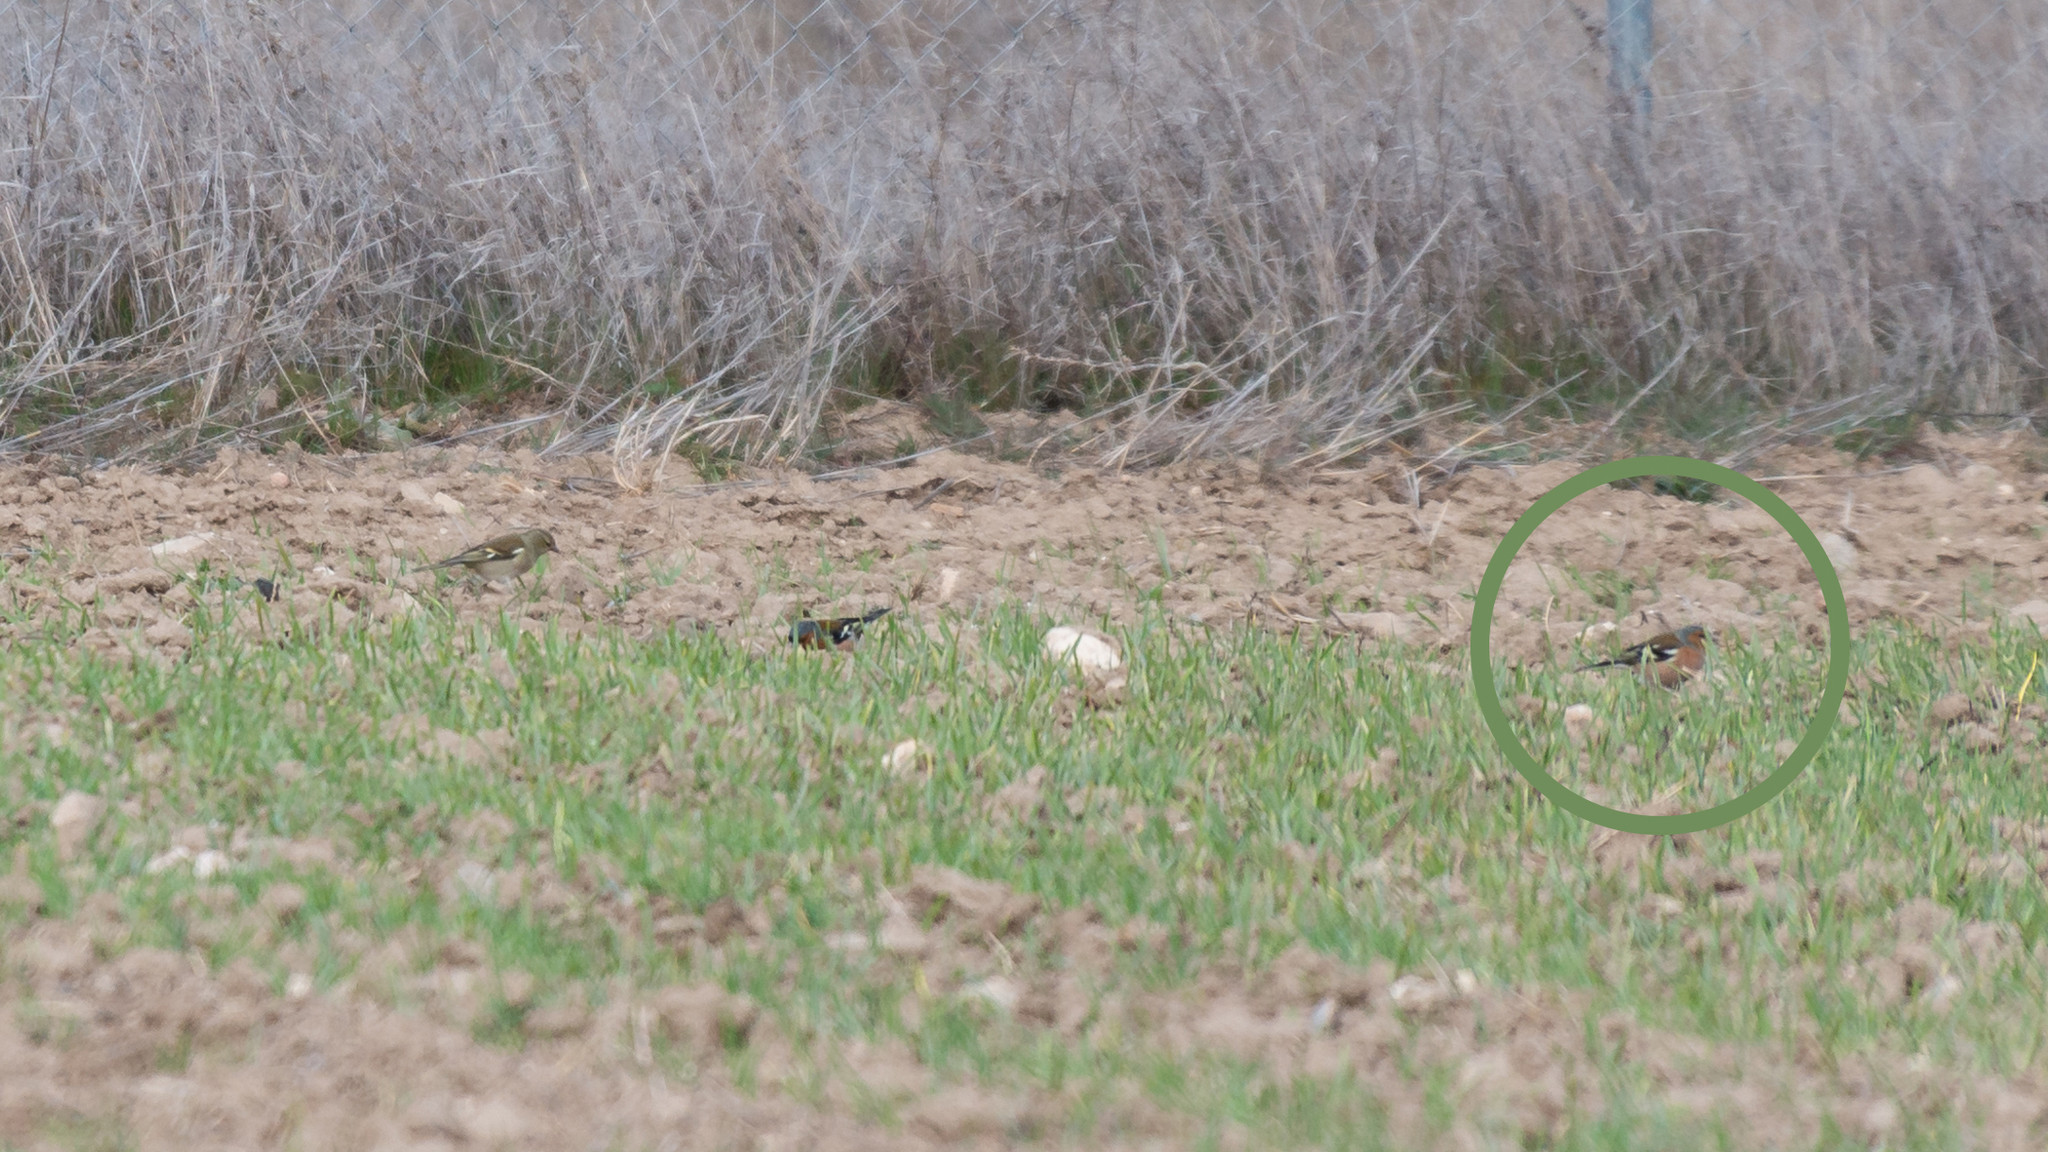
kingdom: Animalia
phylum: Chordata
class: Aves
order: Passeriformes
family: Fringillidae
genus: Fringilla
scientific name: Fringilla coelebs
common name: Common chaffinch
